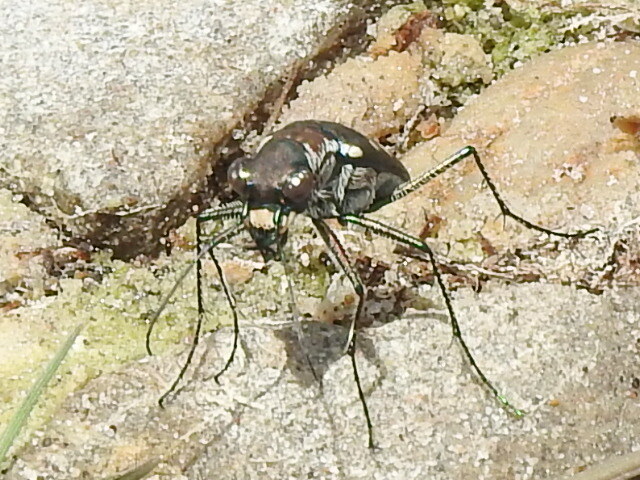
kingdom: Animalia
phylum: Arthropoda
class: Insecta
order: Coleoptera
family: Carabidae
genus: Cicindela
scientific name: Cicindela ocellata
